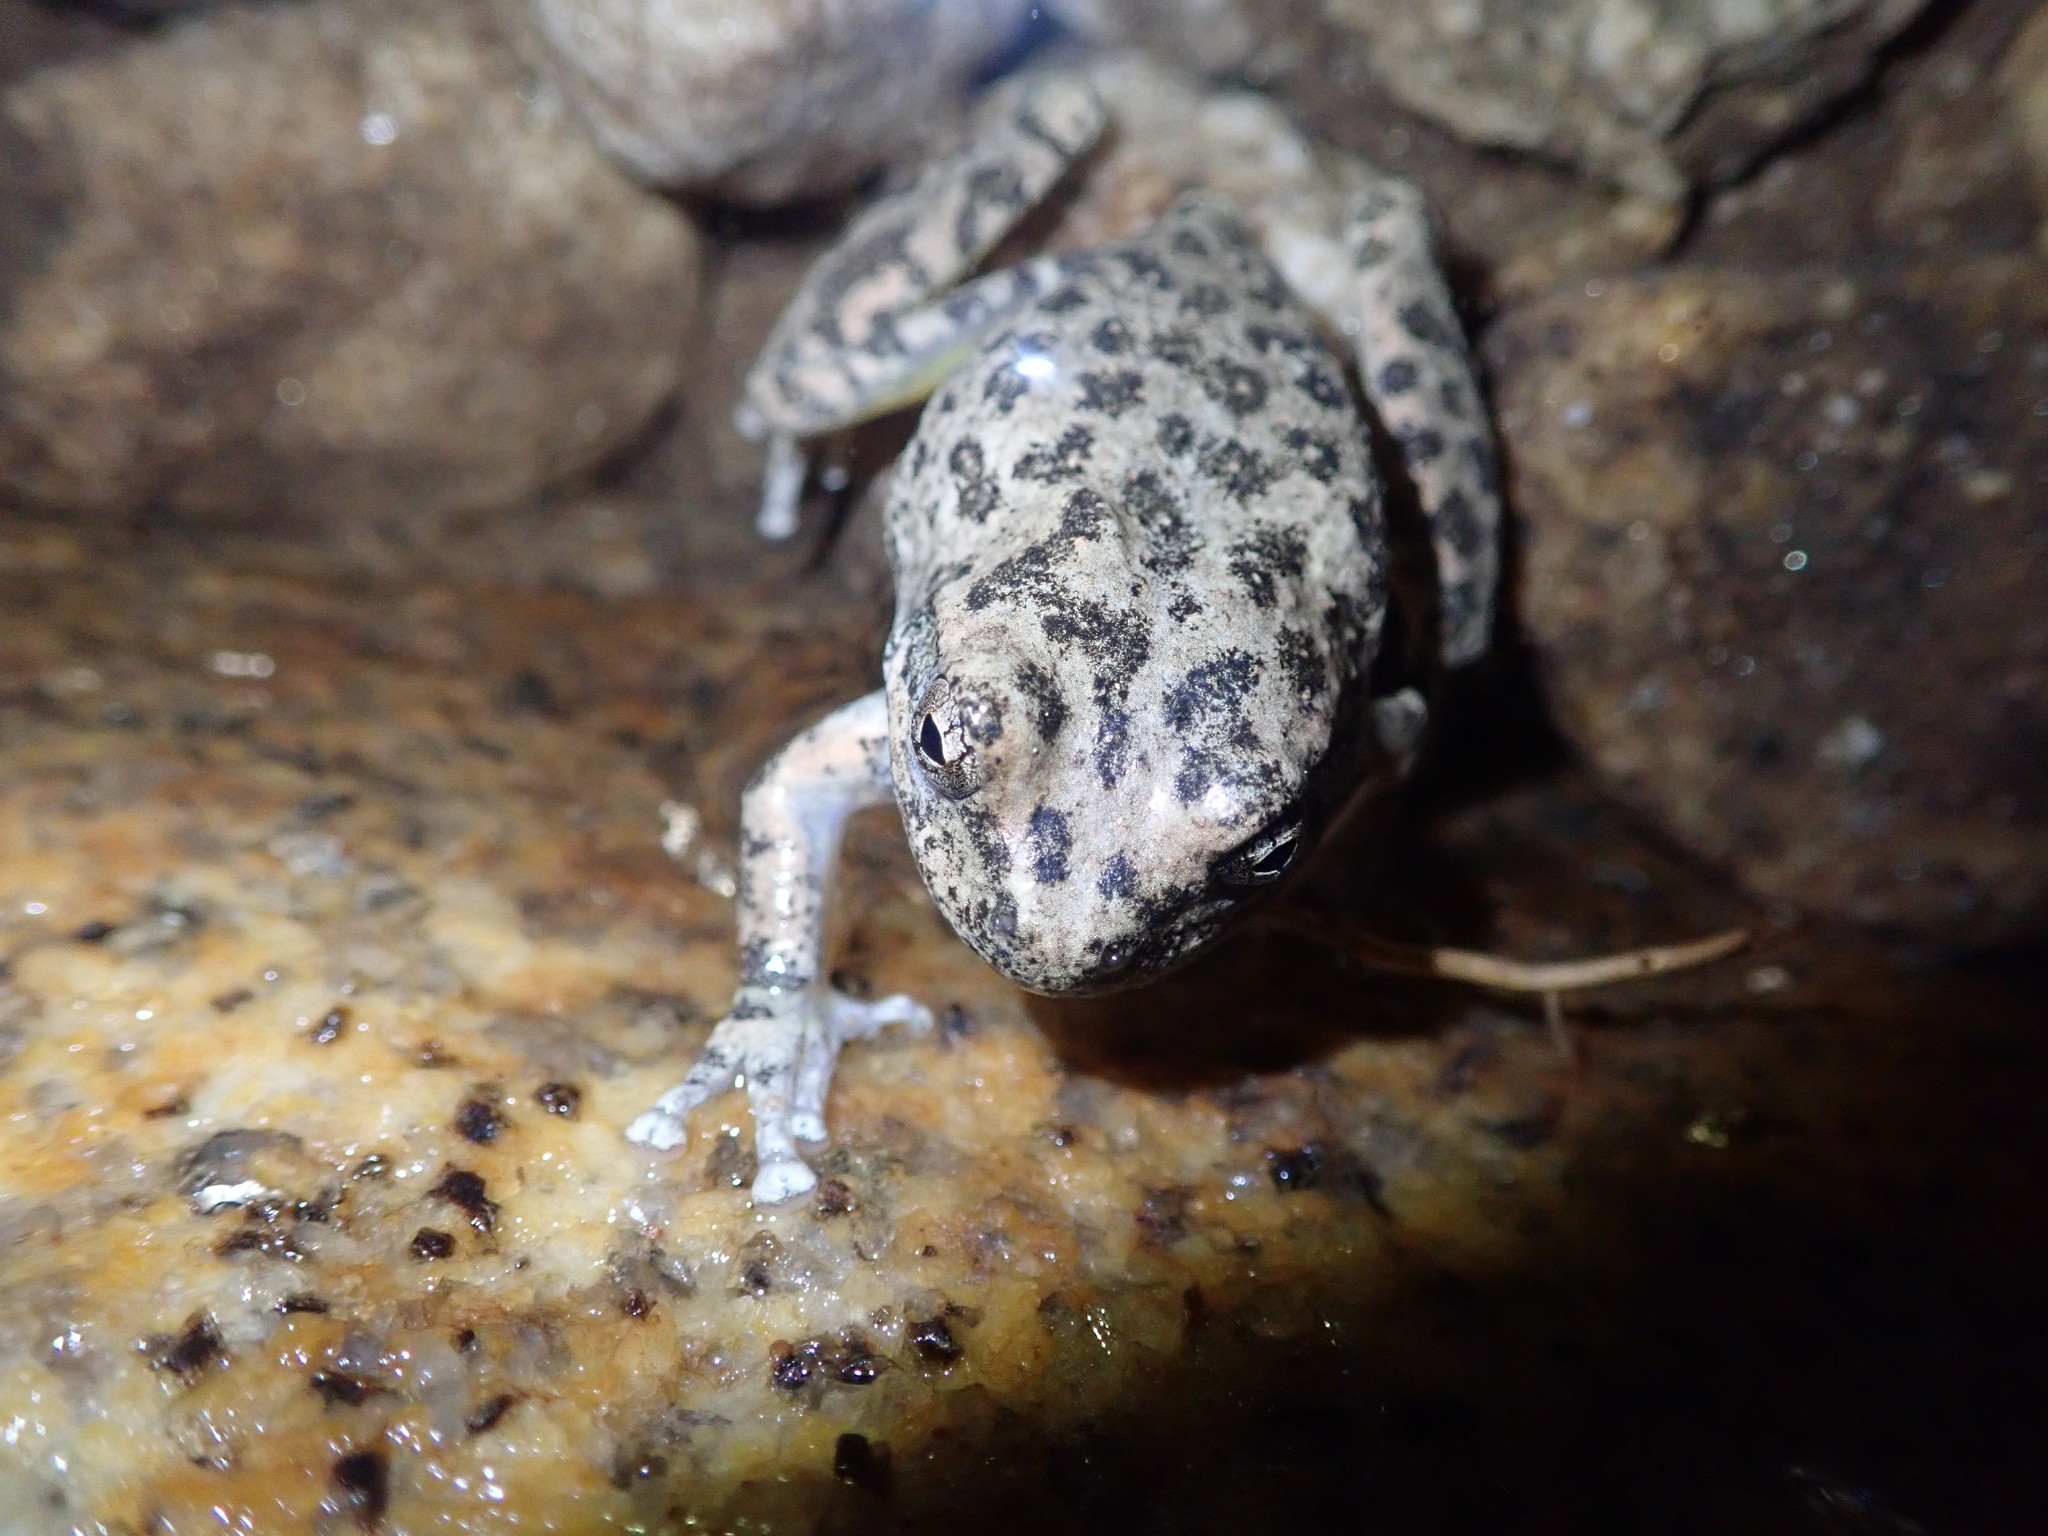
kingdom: Animalia
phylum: Chordata
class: Amphibia
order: Anura
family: Hylidae
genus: Pseudacris
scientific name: Pseudacris cadaverina
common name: California chorus frog
